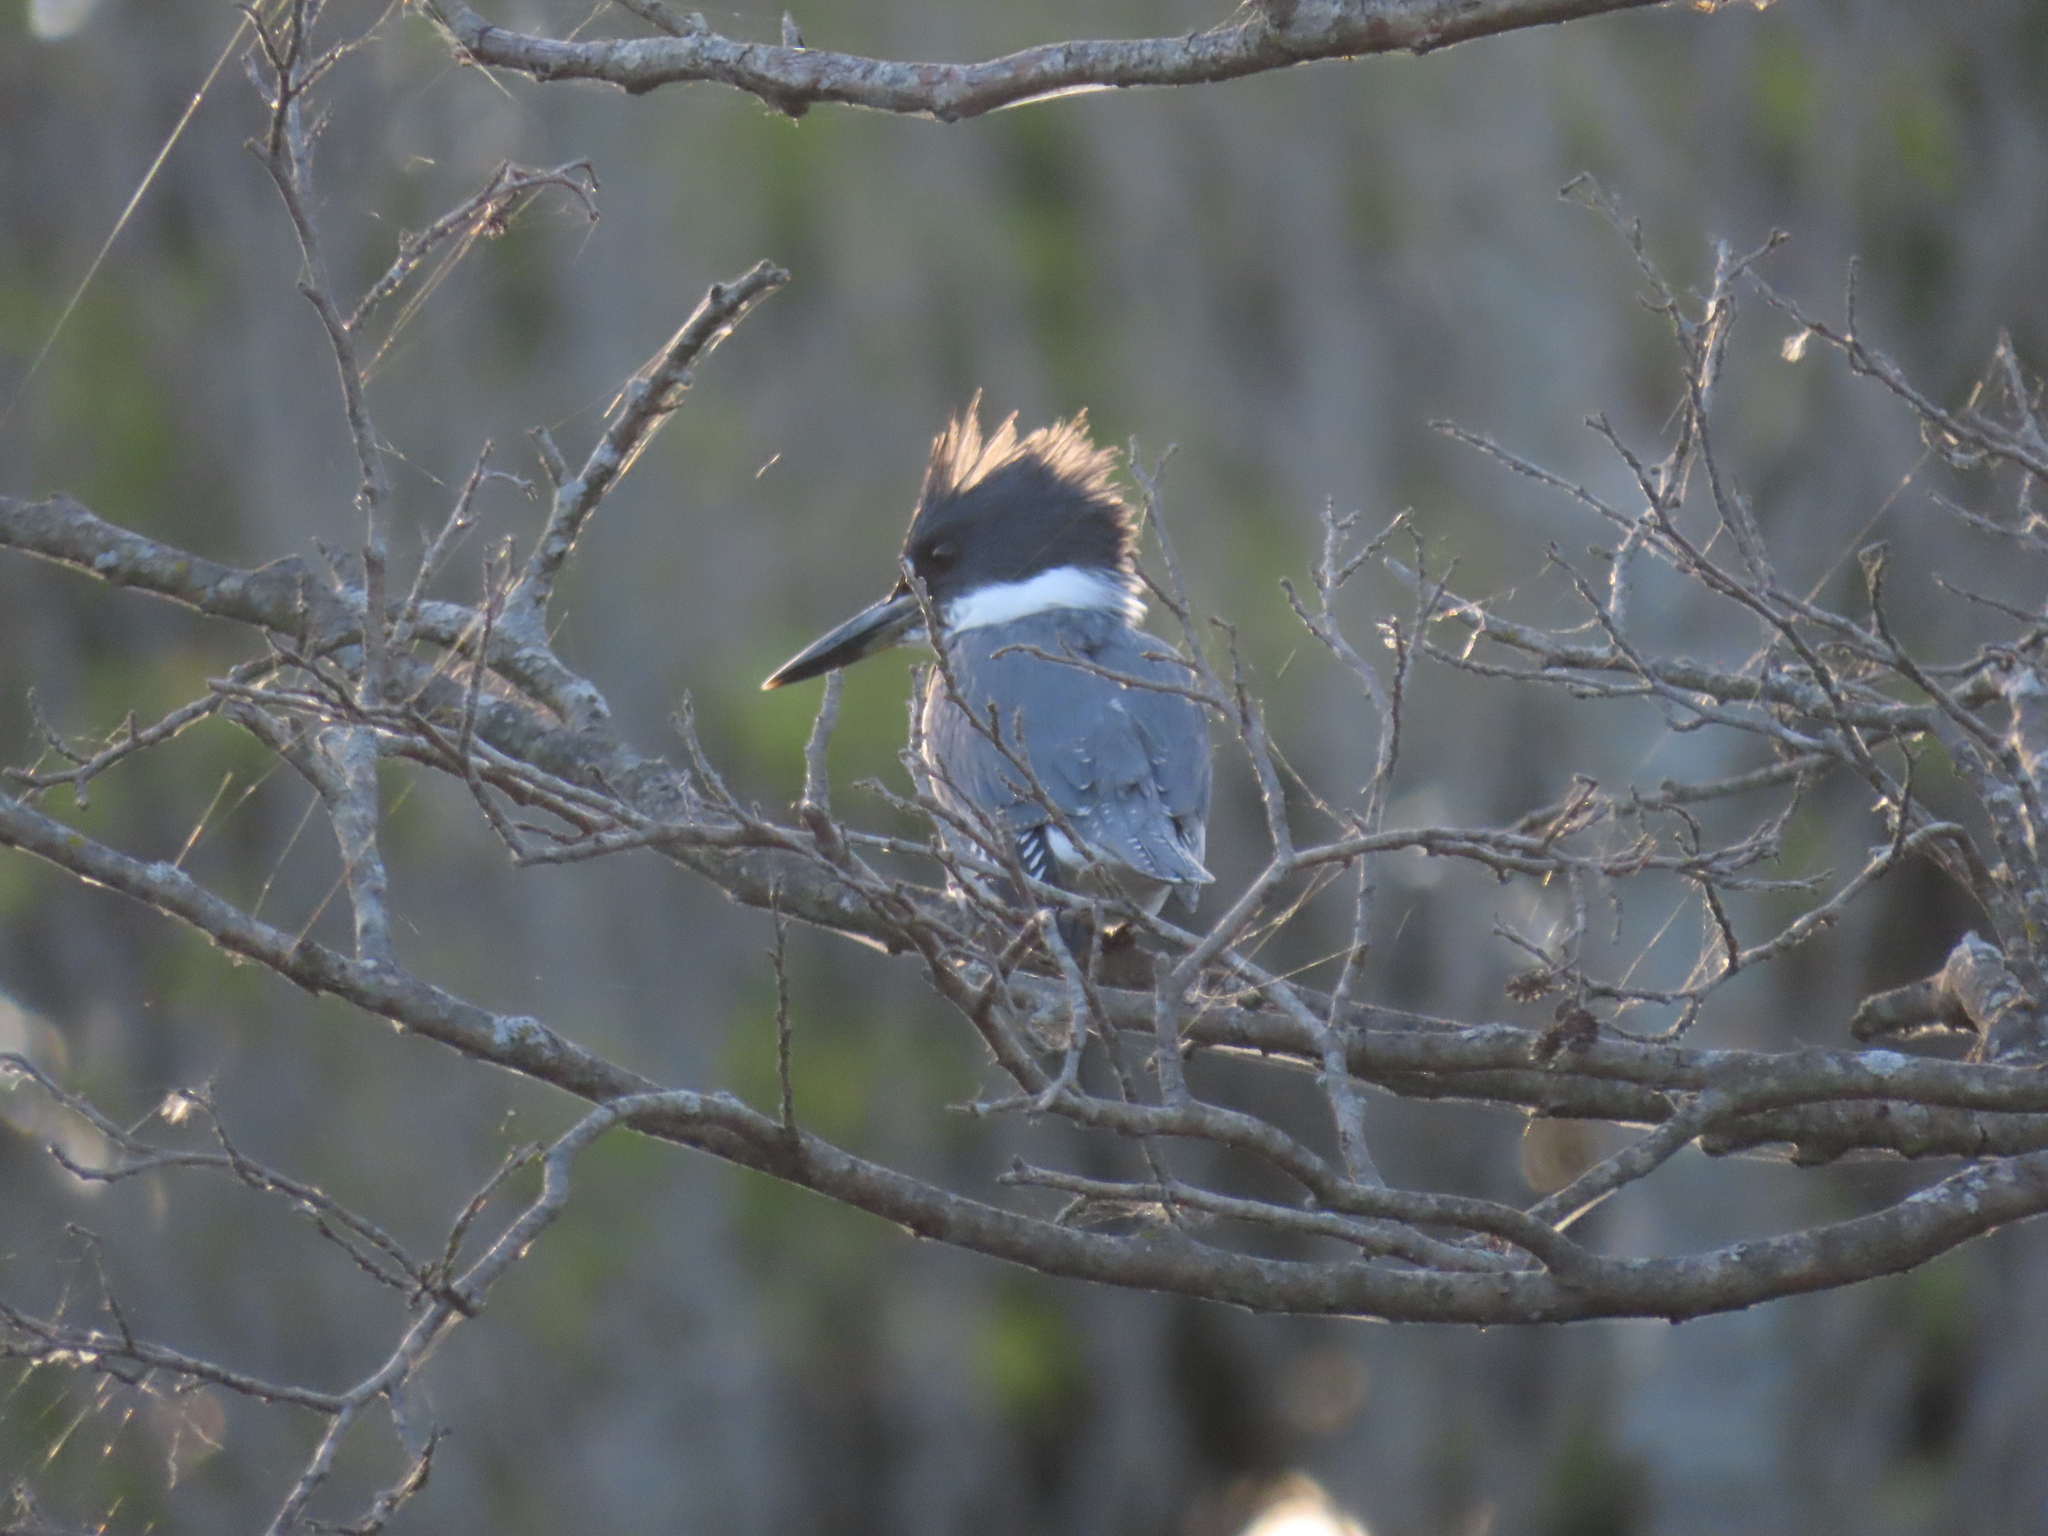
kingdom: Animalia
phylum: Chordata
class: Aves
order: Coraciiformes
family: Alcedinidae
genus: Megaceryle
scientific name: Megaceryle alcyon
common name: Belted kingfisher
